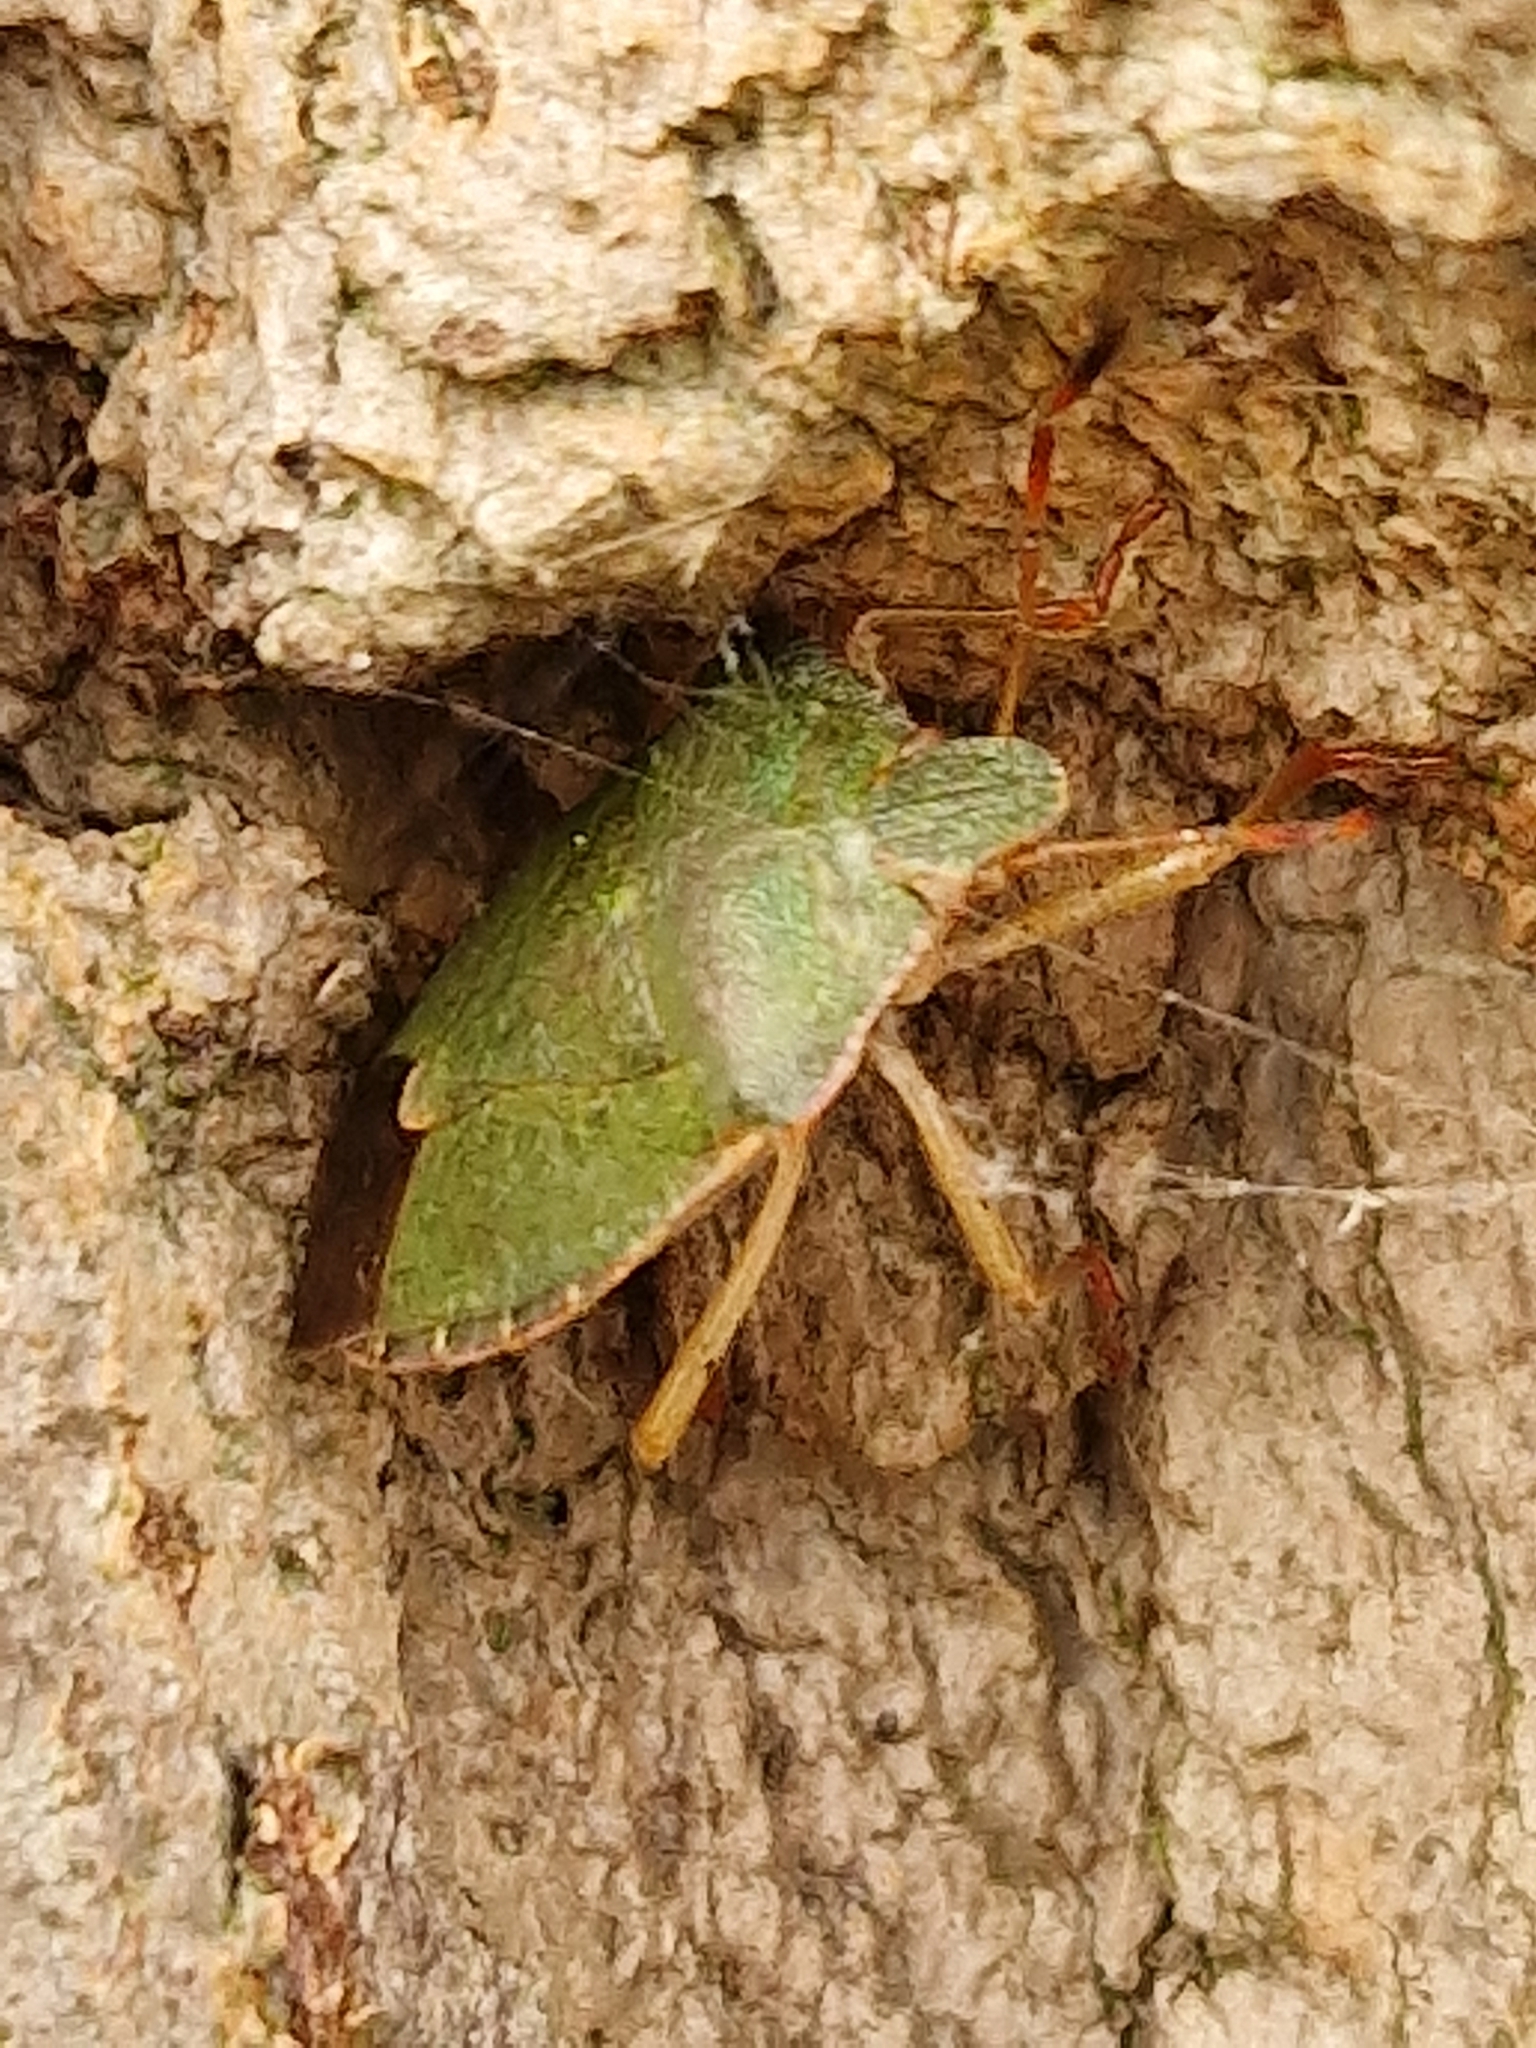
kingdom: Animalia
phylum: Arthropoda
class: Insecta
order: Hemiptera
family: Pentatomidae
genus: Palomena
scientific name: Palomena prasina
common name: Green shieldbug
